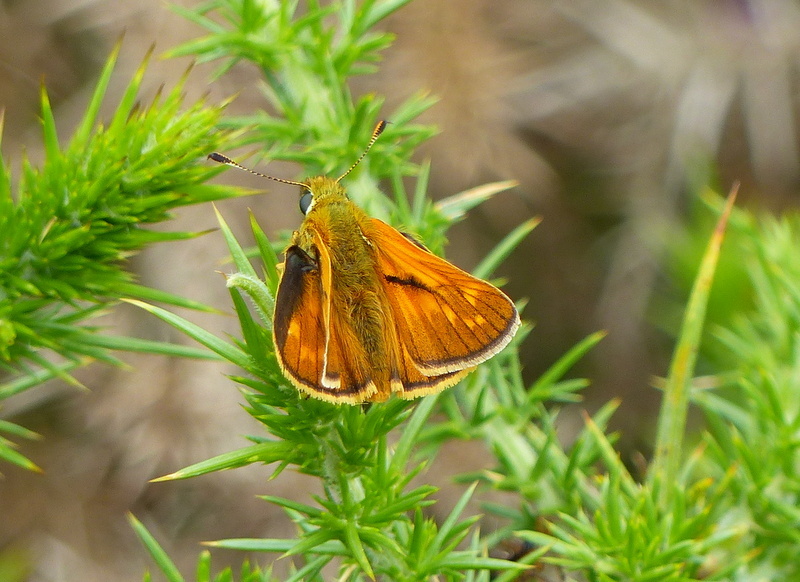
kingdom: Animalia
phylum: Arthropoda
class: Insecta
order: Lepidoptera
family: Hesperiidae
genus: Ochlodes
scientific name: Ochlodes venata
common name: Large skipper
